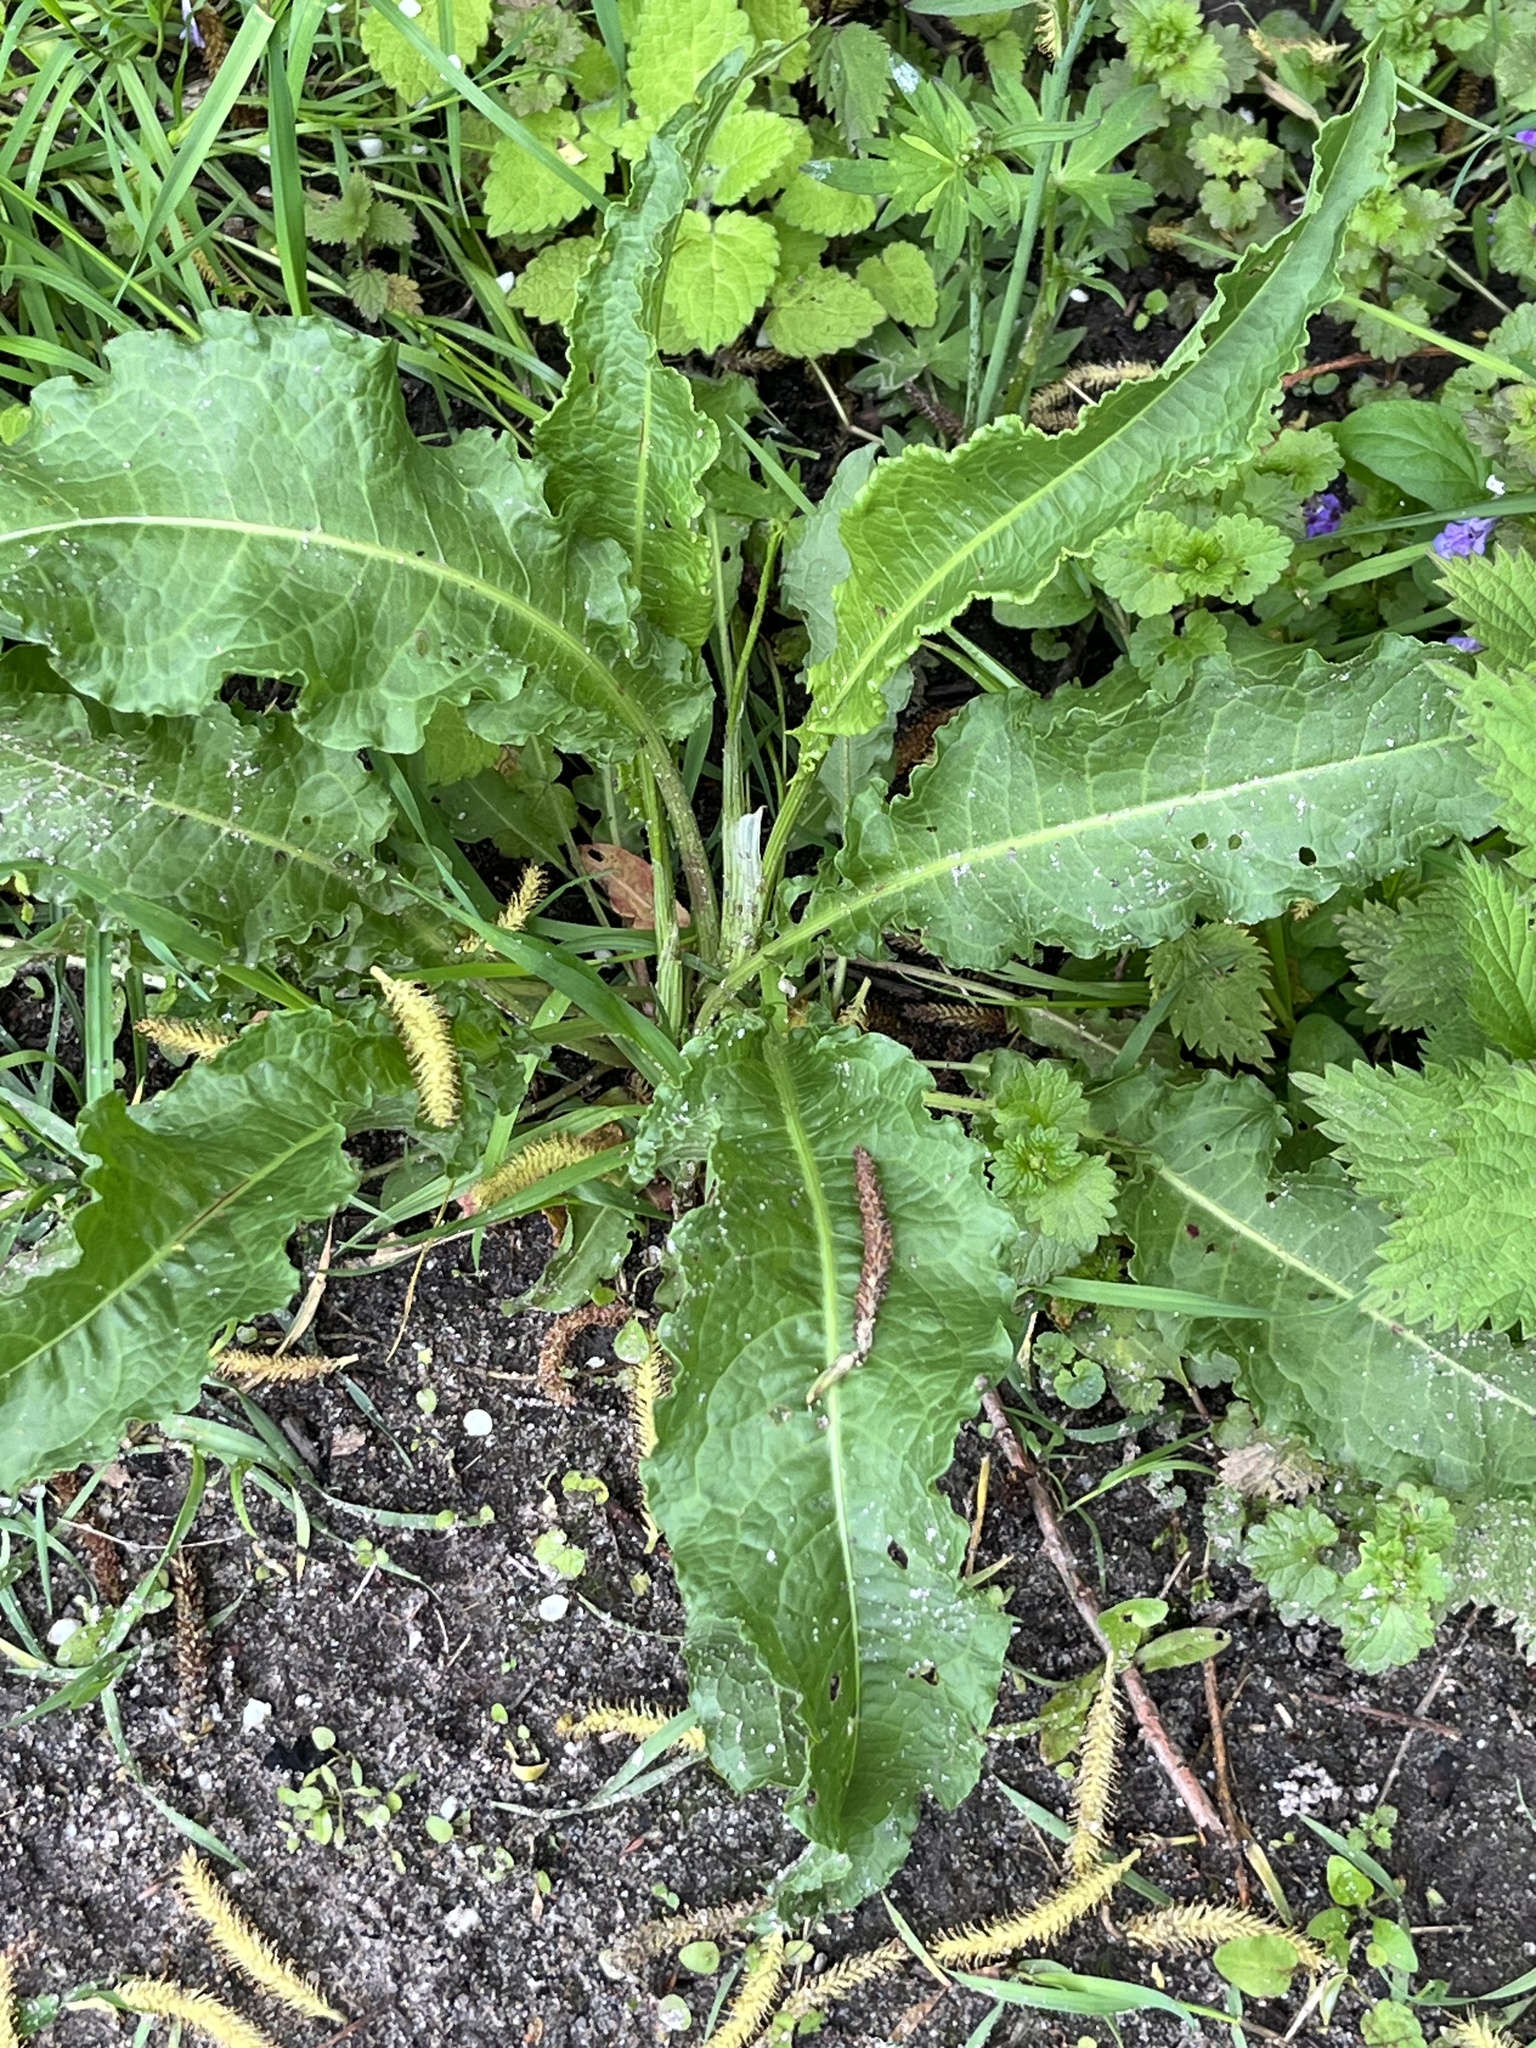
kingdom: Plantae
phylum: Tracheophyta
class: Magnoliopsida
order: Caryophyllales
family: Polygonaceae
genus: Rumex
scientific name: Rumex crispus
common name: Curled dock
